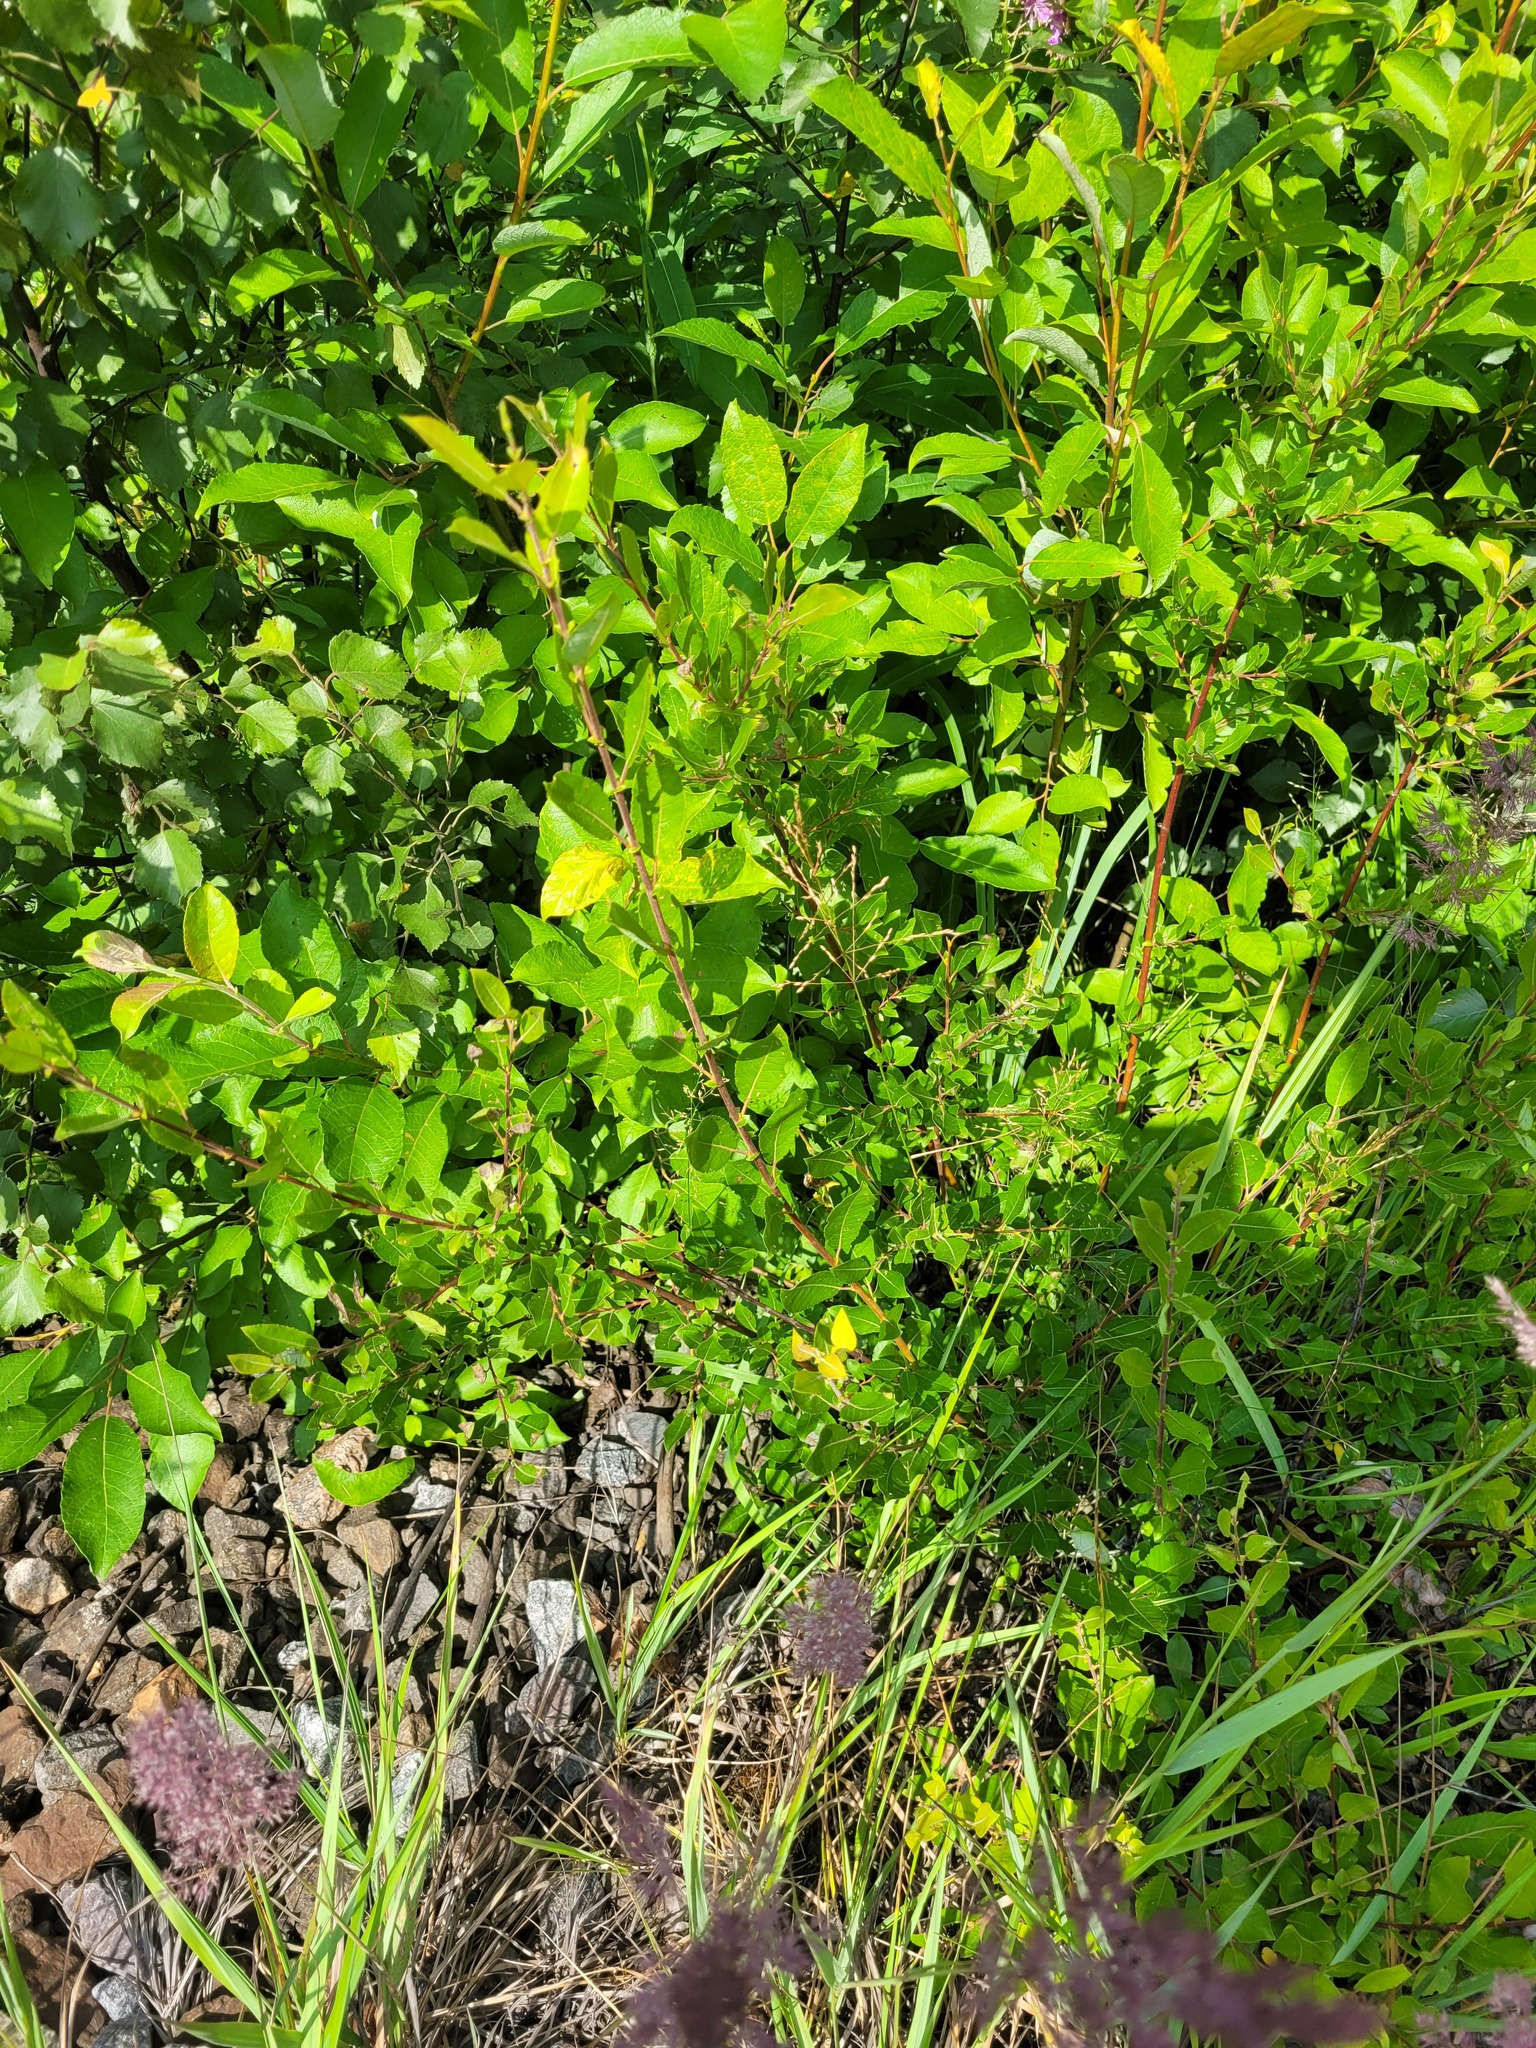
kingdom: Plantae
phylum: Tracheophyta
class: Magnoliopsida
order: Malpighiales
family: Salicaceae
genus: Salix
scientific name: Salix myrsinifolia
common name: Dark-leaved willow
